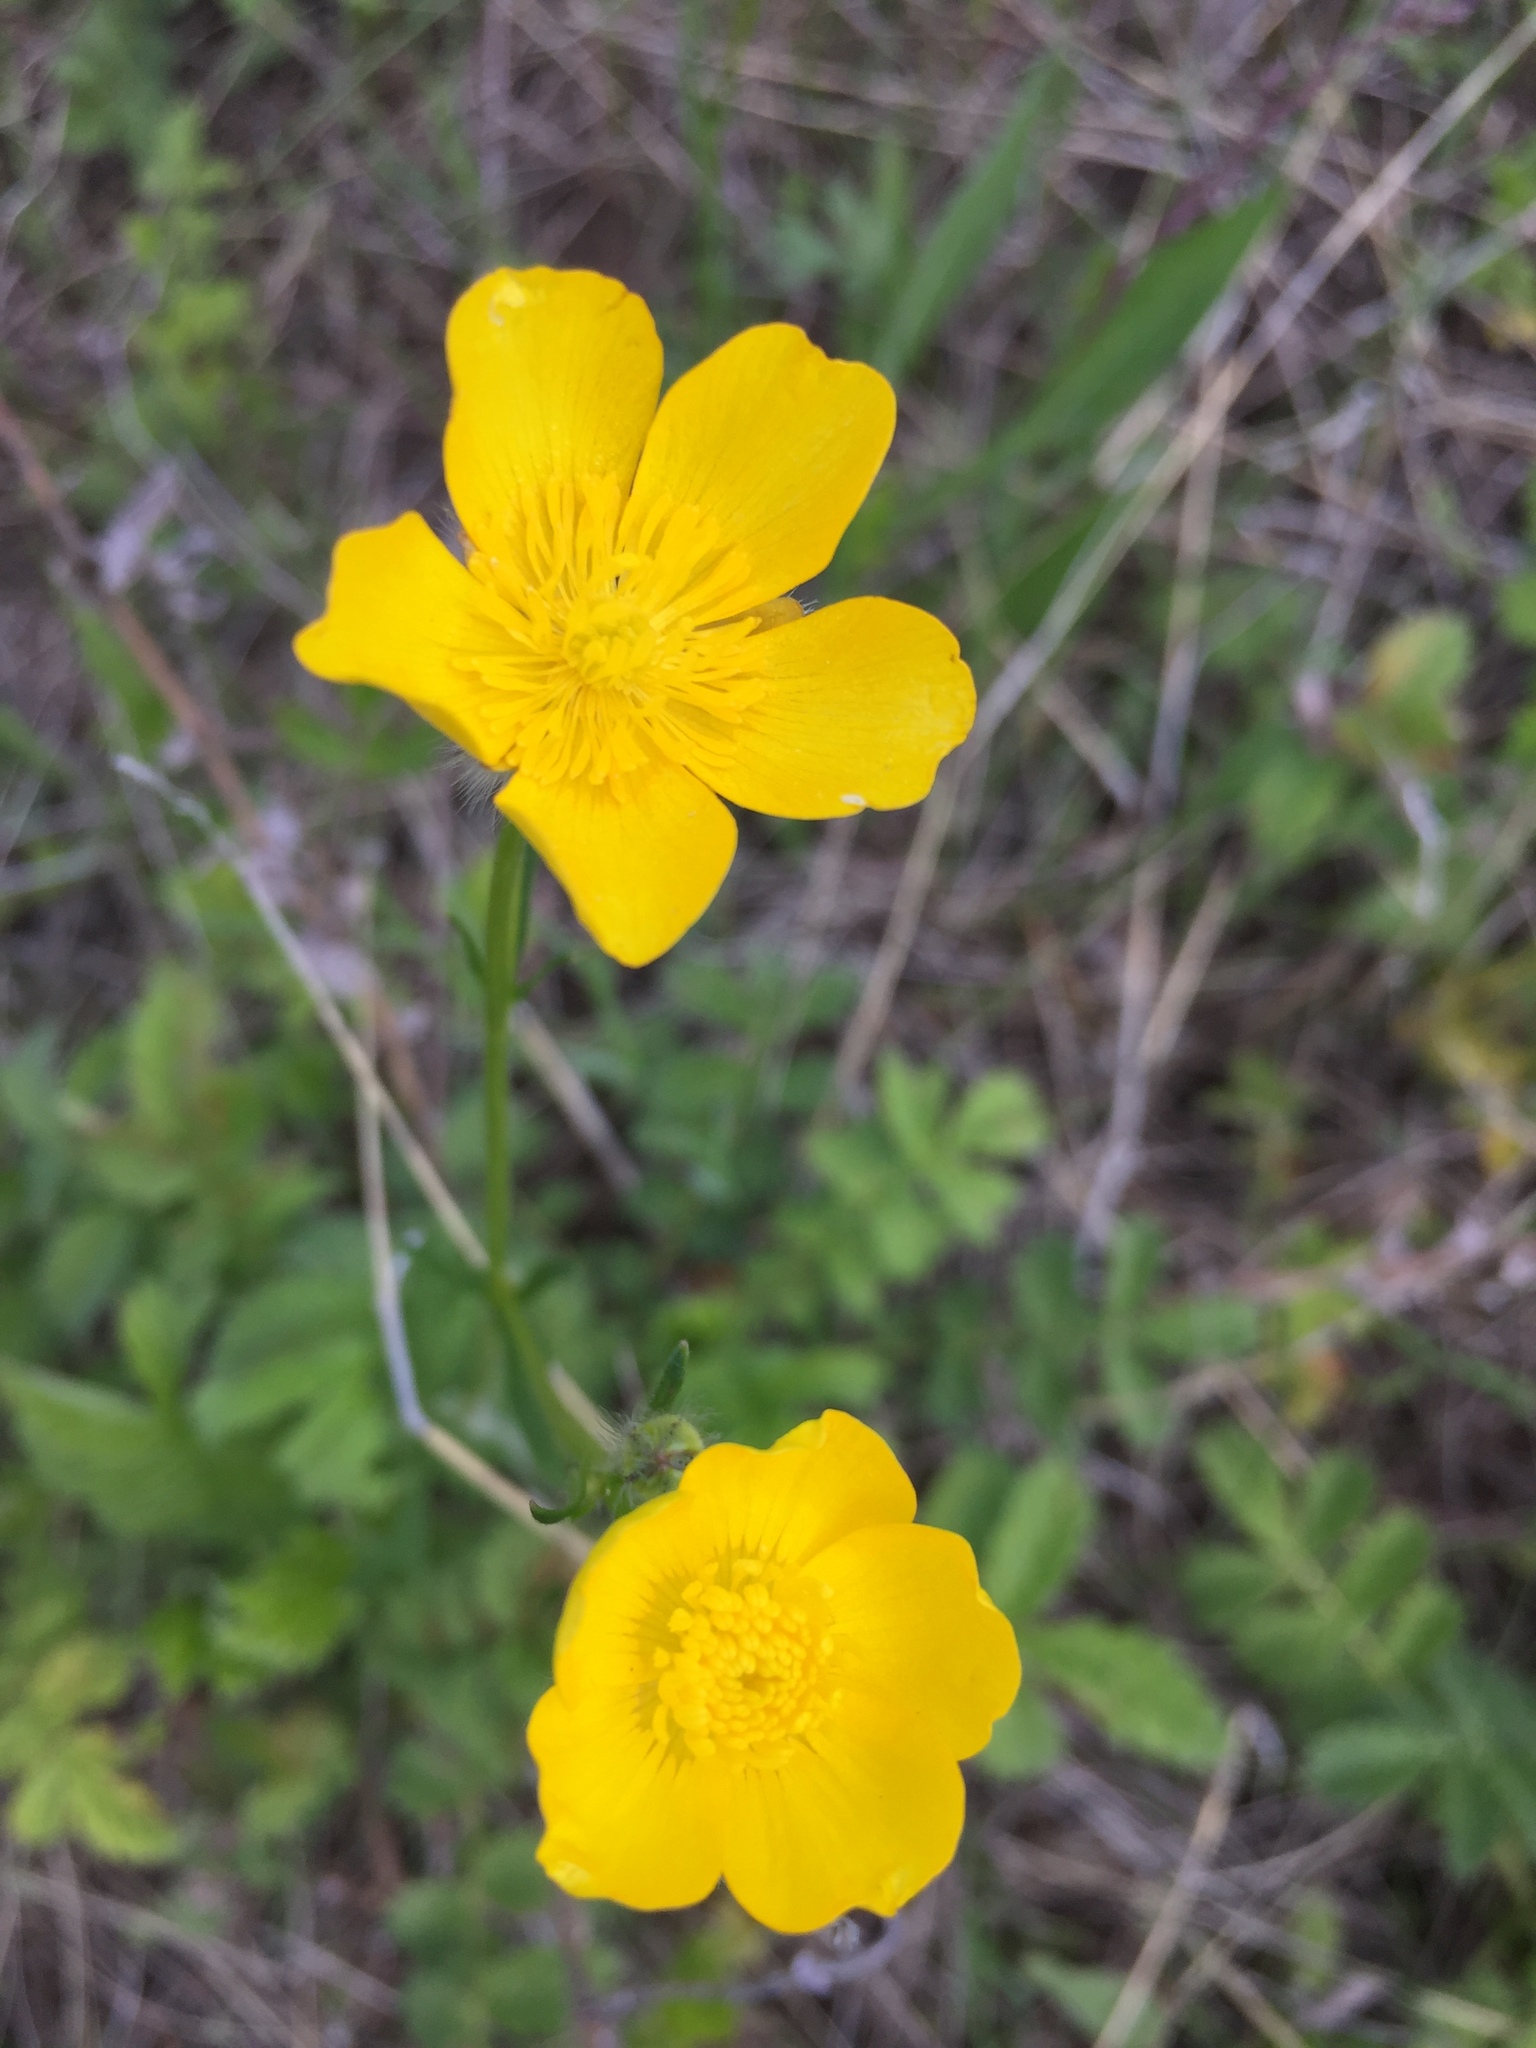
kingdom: Plantae
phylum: Tracheophyta
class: Magnoliopsida
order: Ranunculales
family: Ranunculaceae
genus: Ranunculus
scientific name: Ranunculus polyanthemos
